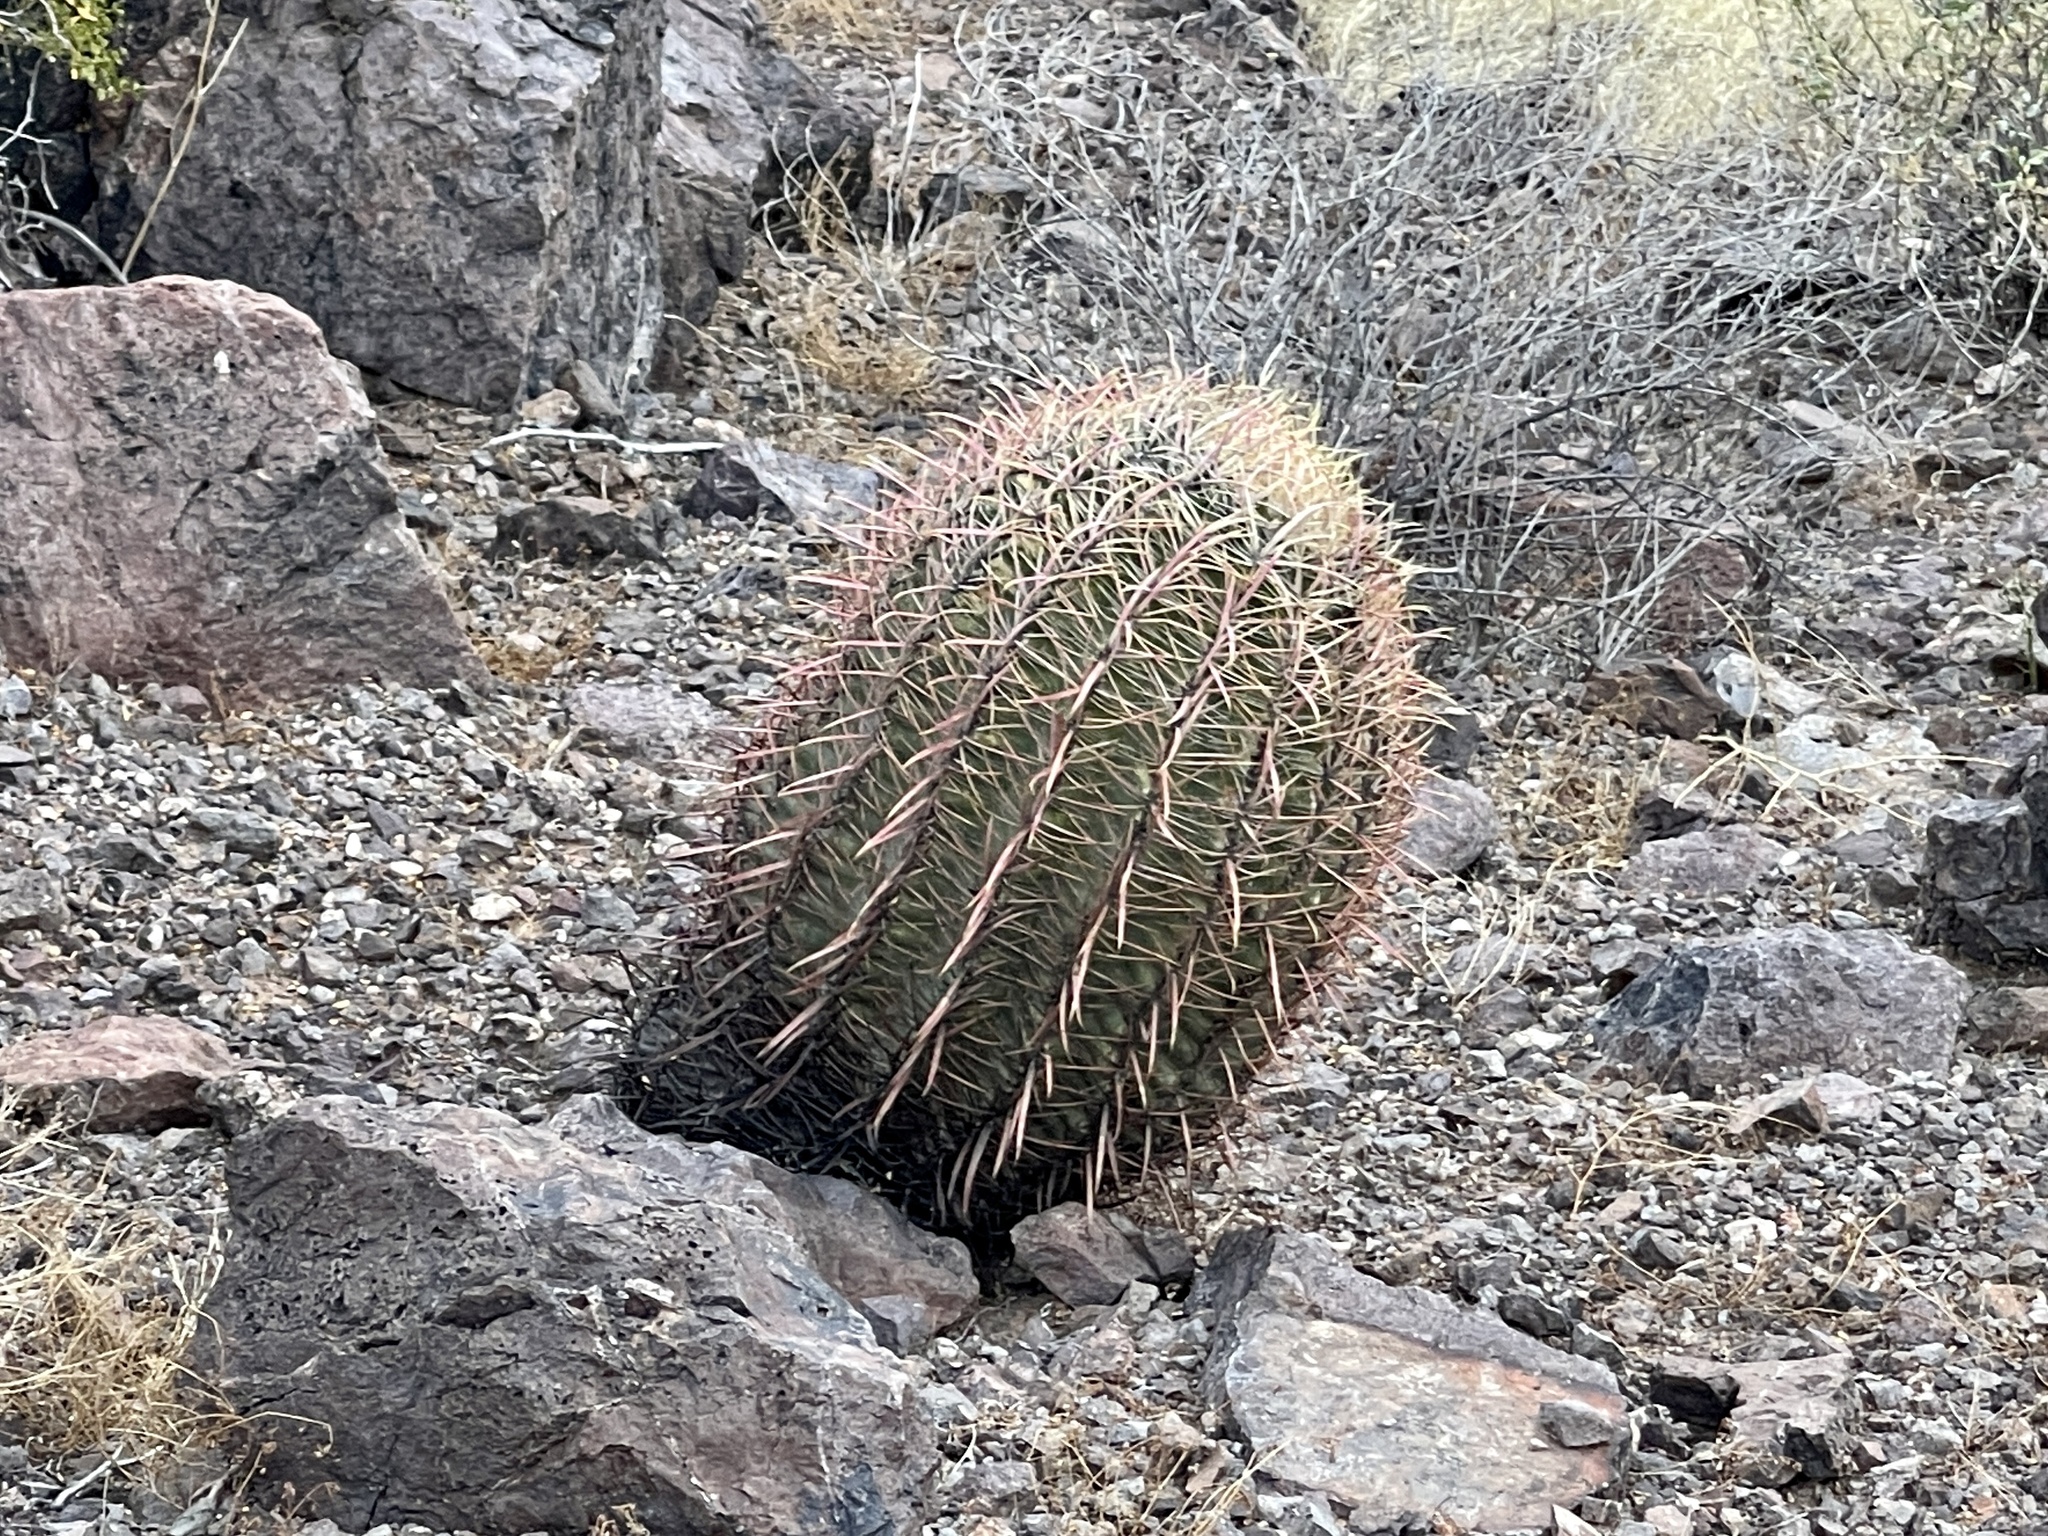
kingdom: Plantae
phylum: Tracheophyta
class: Magnoliopsida
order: Caryophyllales
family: Cactaceae
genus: Ferocactus
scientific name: Ferocactus cylindraceus
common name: California barrel cactus
